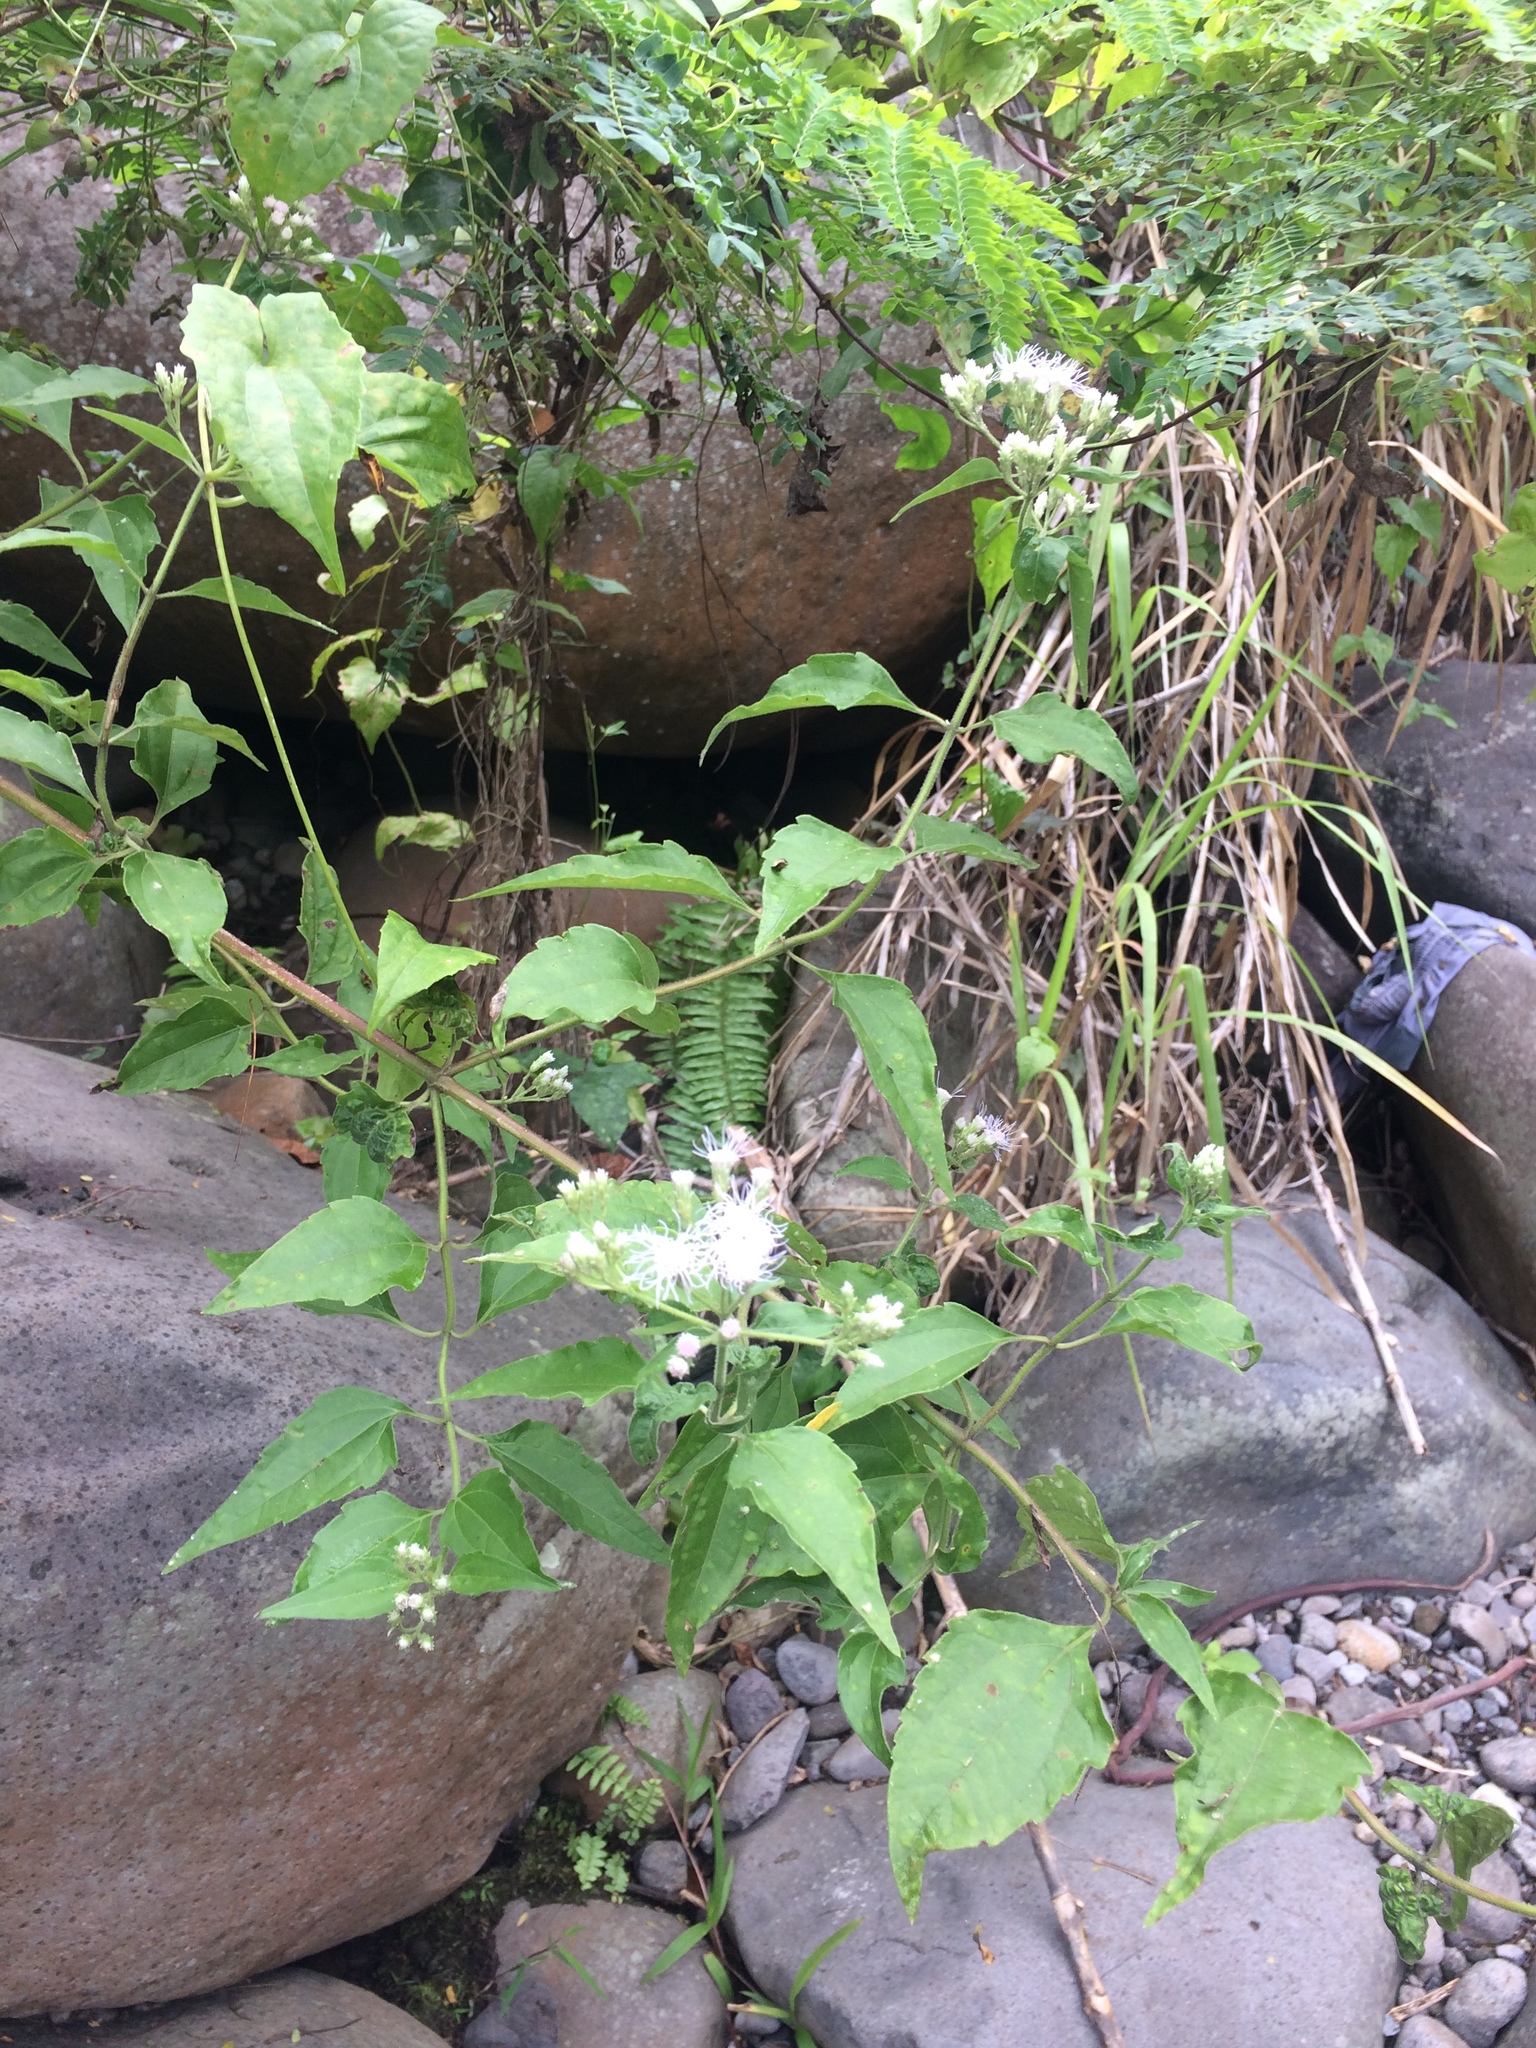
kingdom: Plantae
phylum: Tracheophyta
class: Magnoliopsida
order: Asterales
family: Asteraceae
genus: Chromolaena
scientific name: Chromolaena odorata
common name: Siamweed
